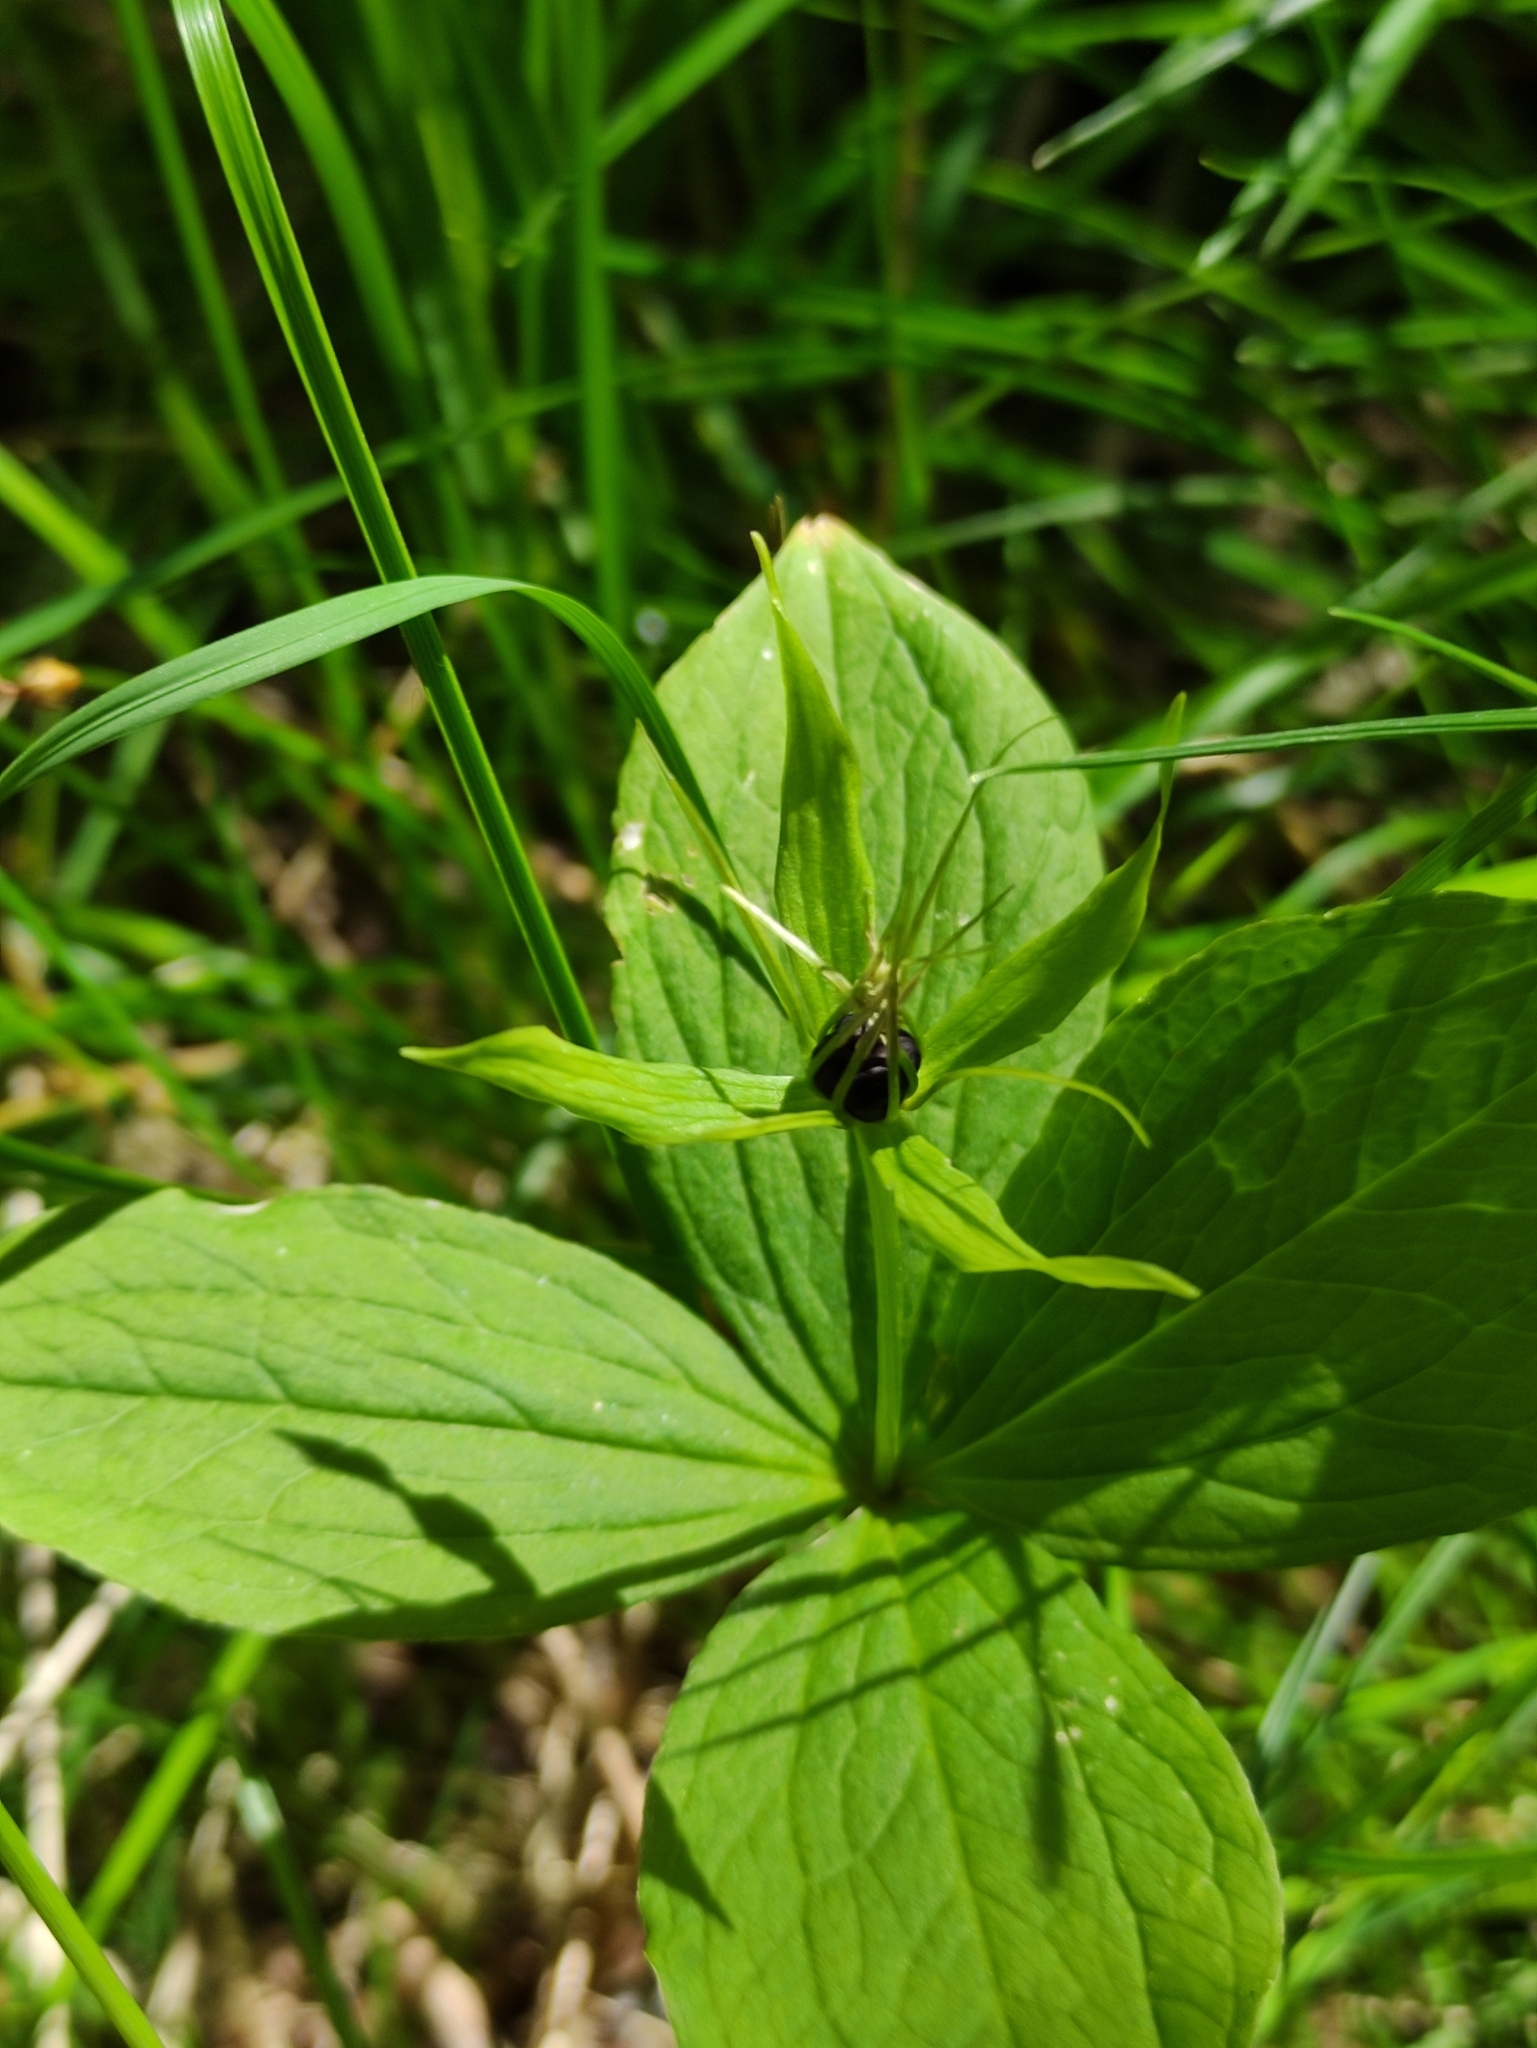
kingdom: Plantae
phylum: Tracheophyta
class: Liliopsida
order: Liliales
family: Melanthiaceae
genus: Paris
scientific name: Paris quadrifolia
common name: Herb-paris
